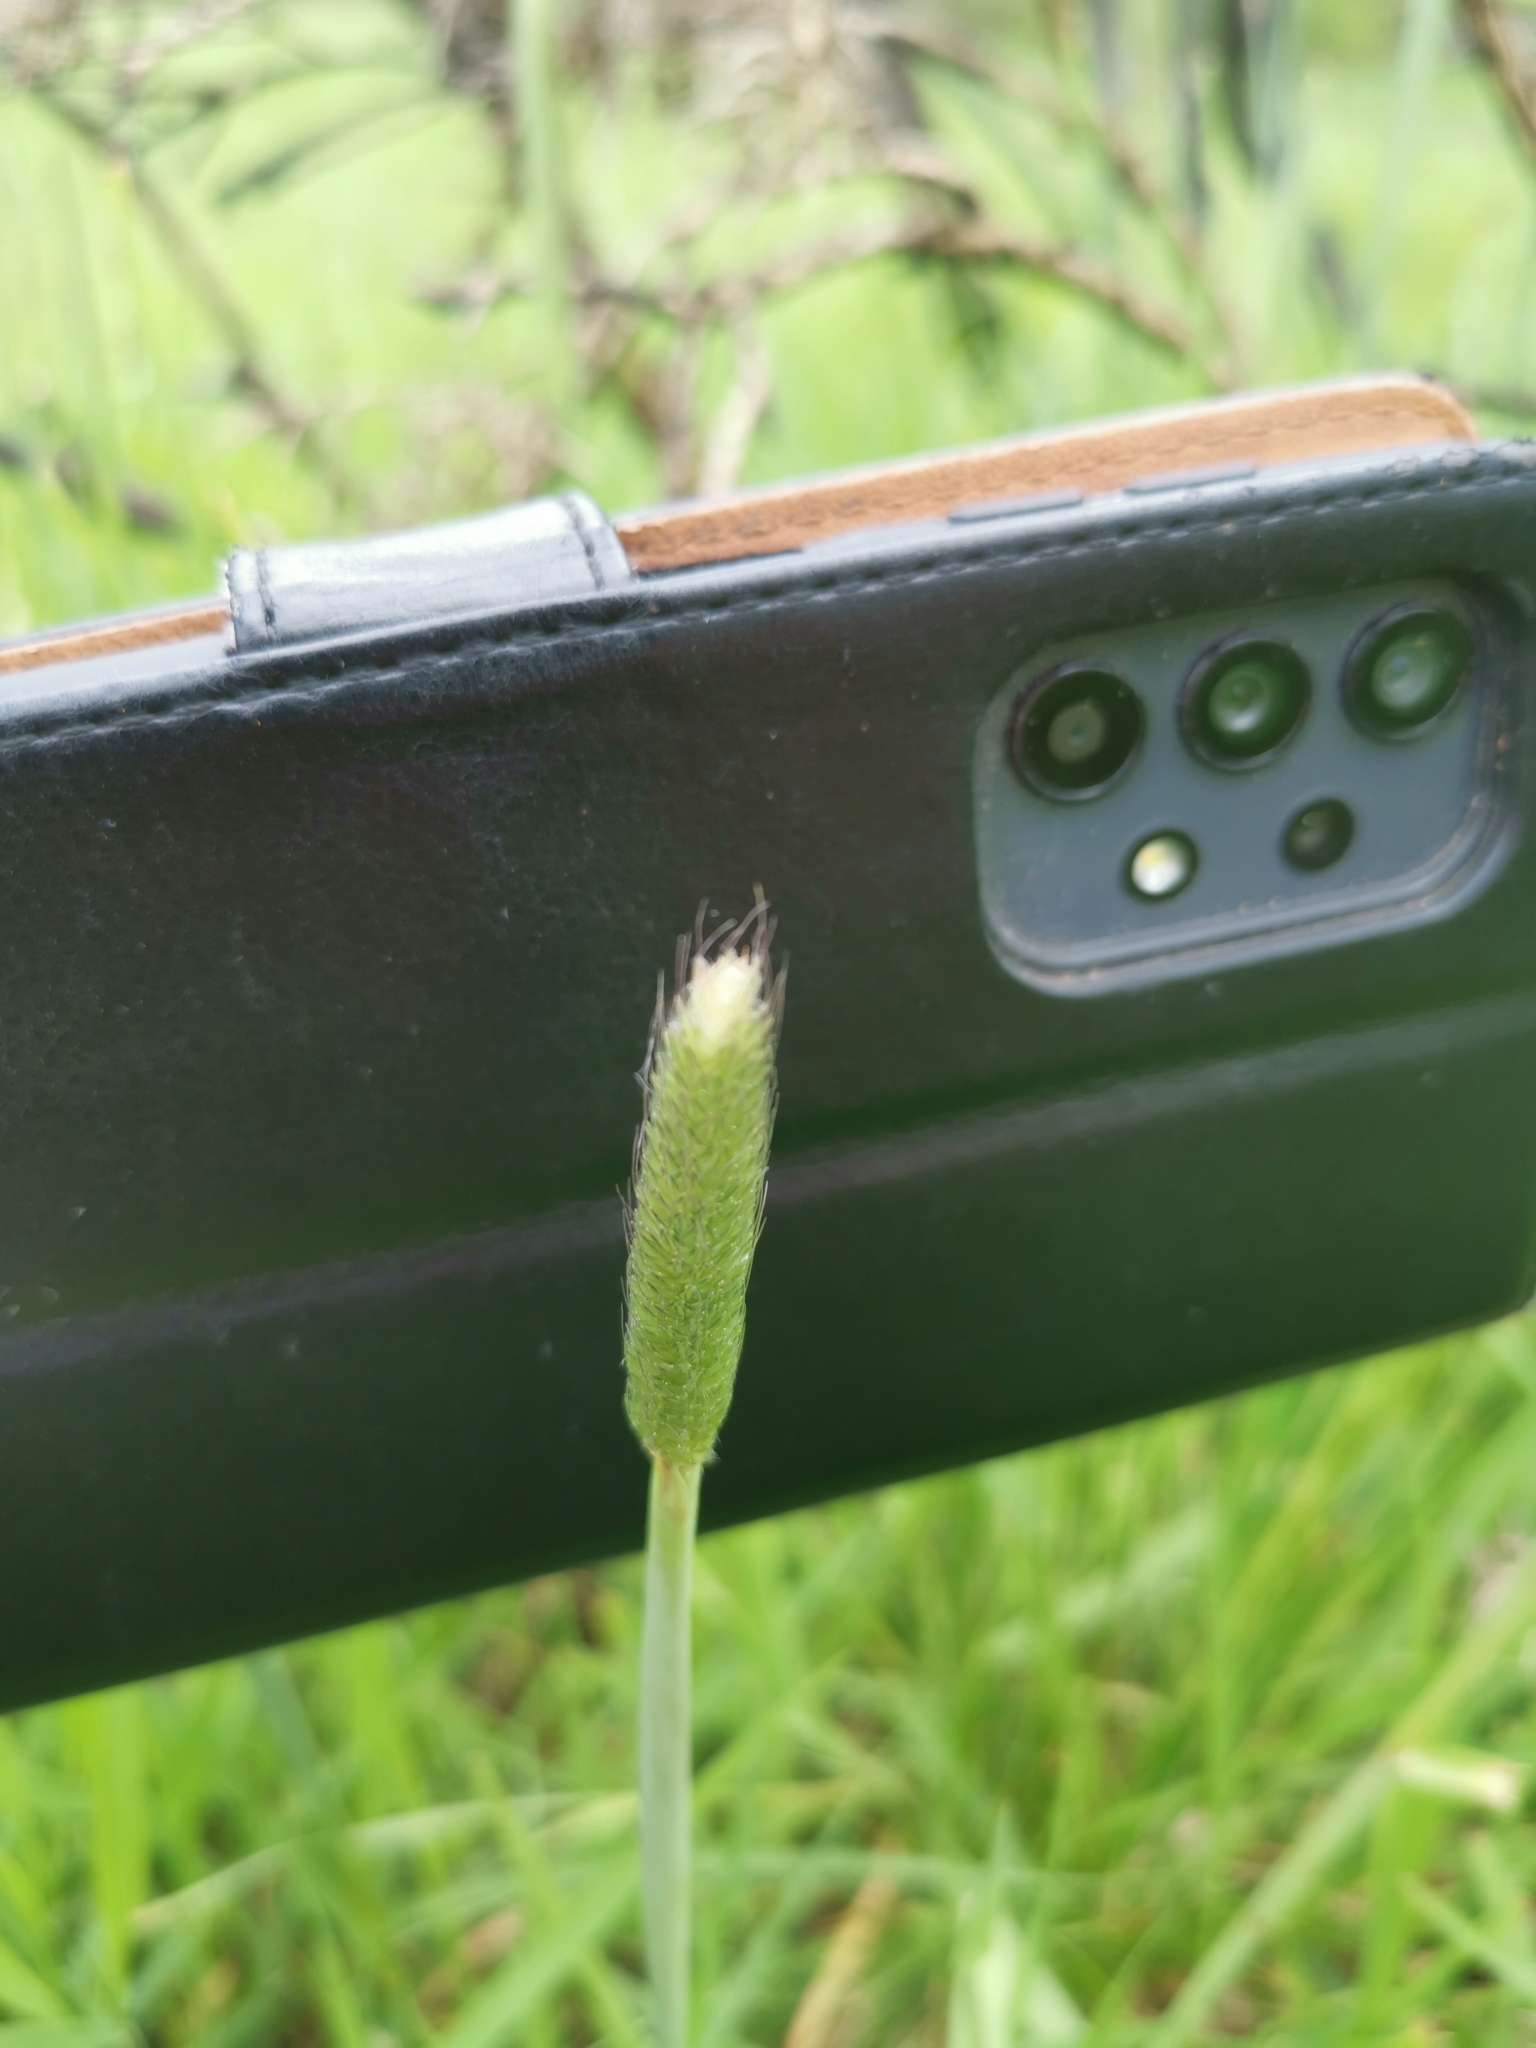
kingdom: Plantae
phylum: Tracheophyta
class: Liliopsida
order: Poales
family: Poaceae
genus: Alopecurus
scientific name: Alopecurus pratensis
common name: Meadow foxtail
